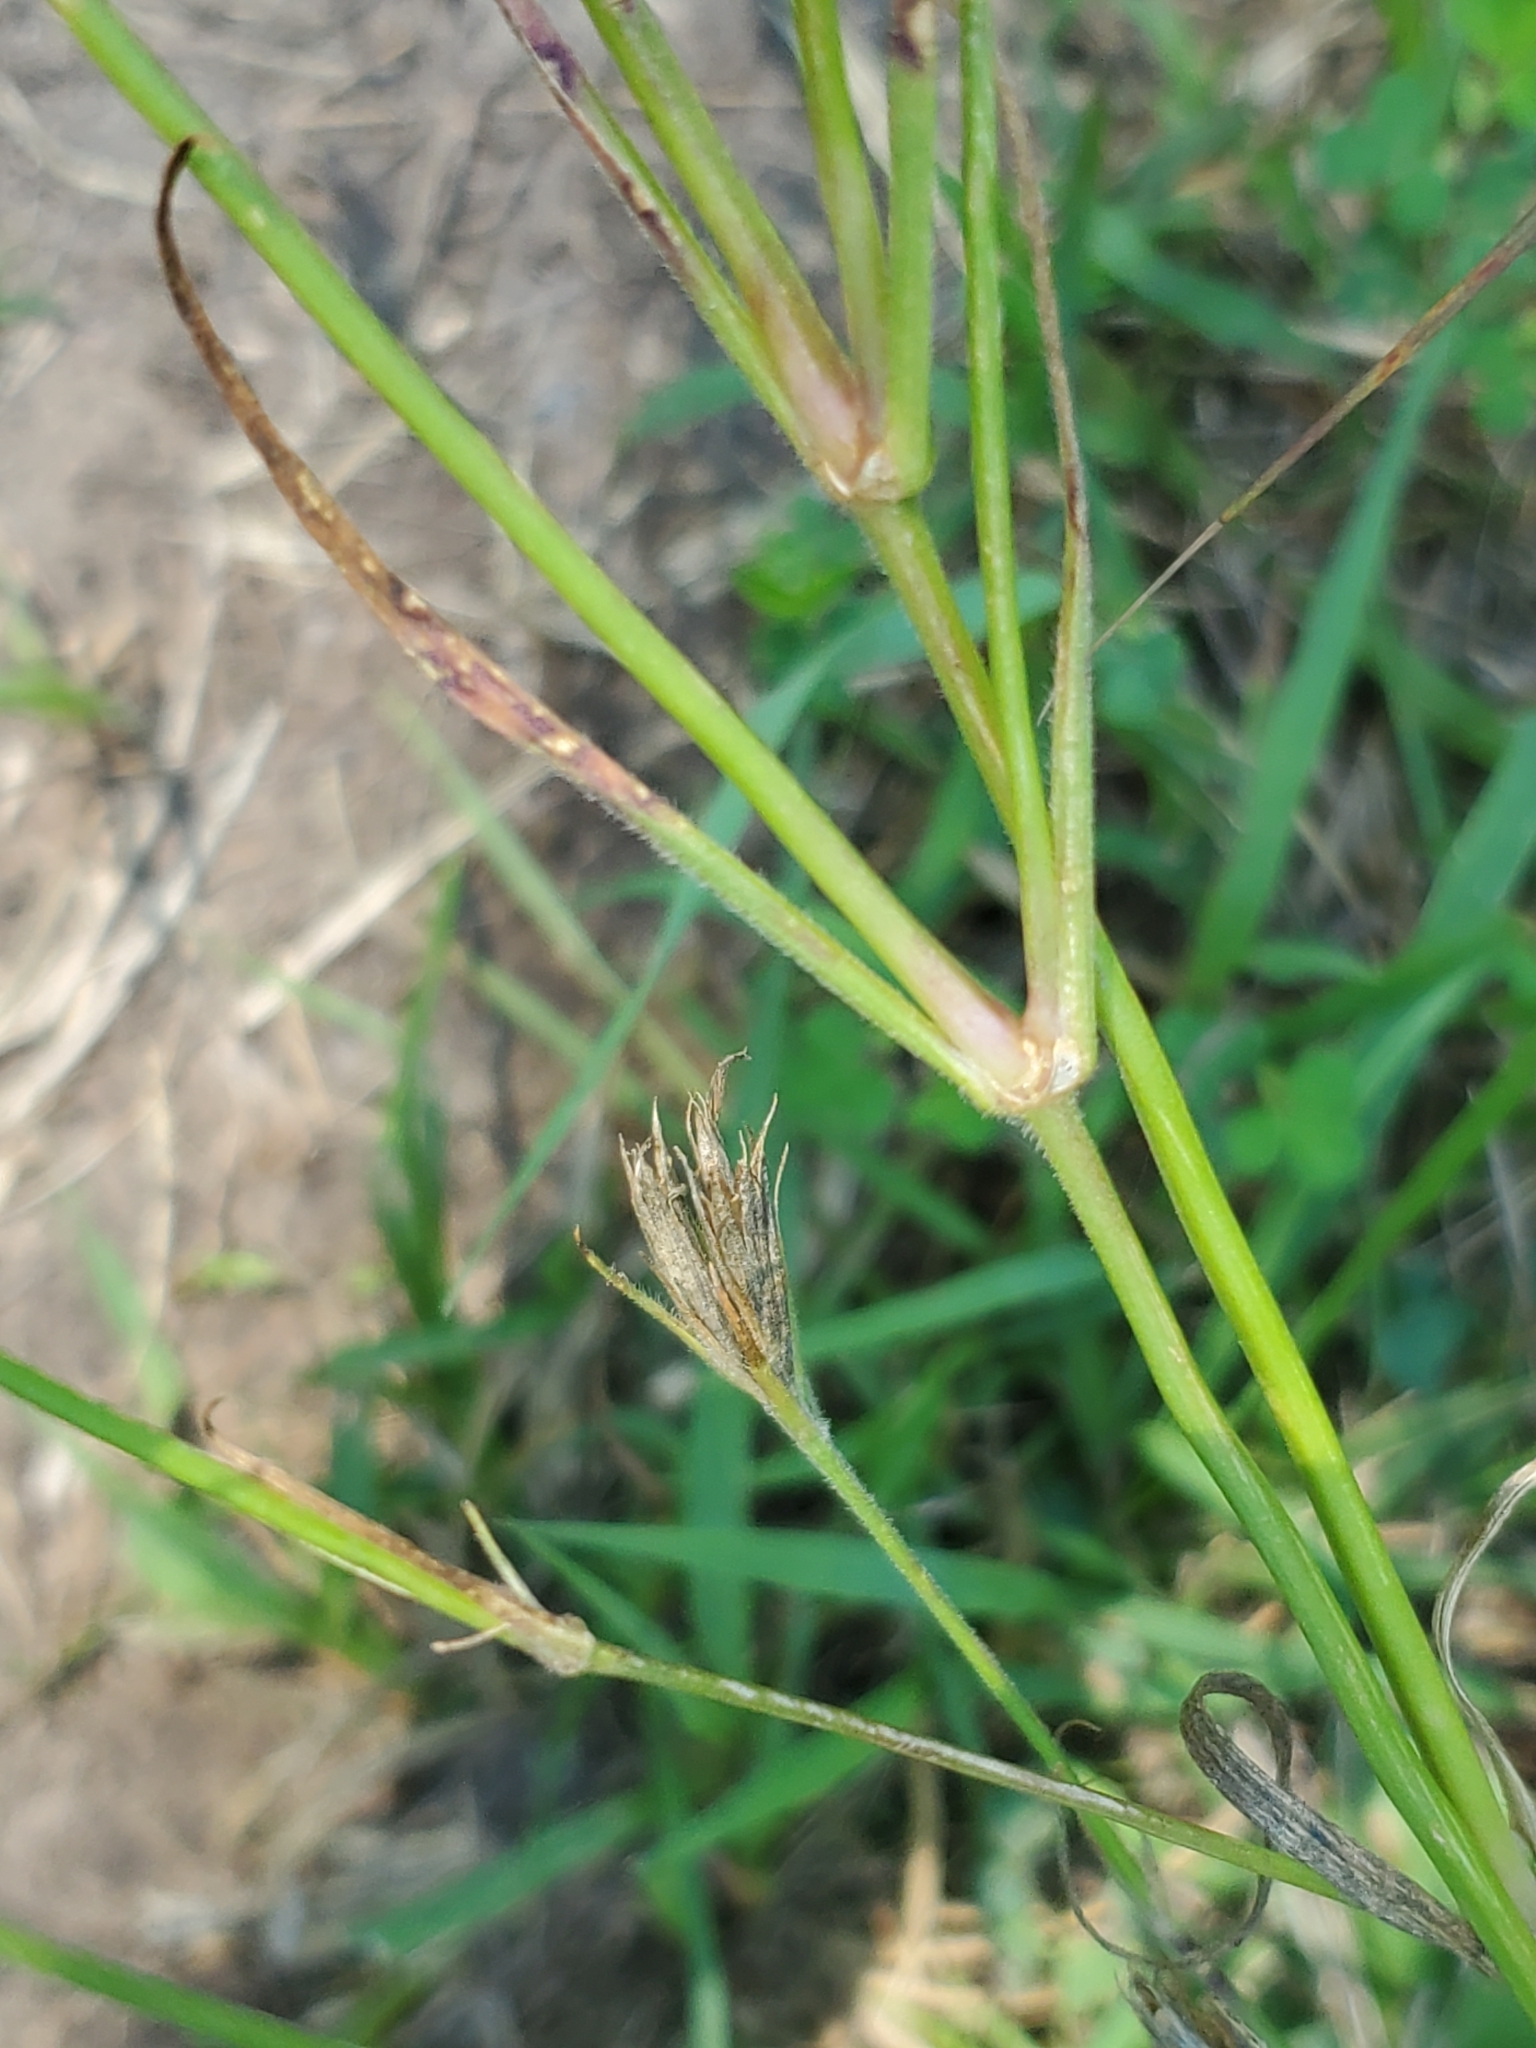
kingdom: Plantae
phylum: Tracheophyta
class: Magnoliopsida
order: Caryophyllales
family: Caryophyllaceae
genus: Dianthus
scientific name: Dianthus armeria
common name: Deptford pink
